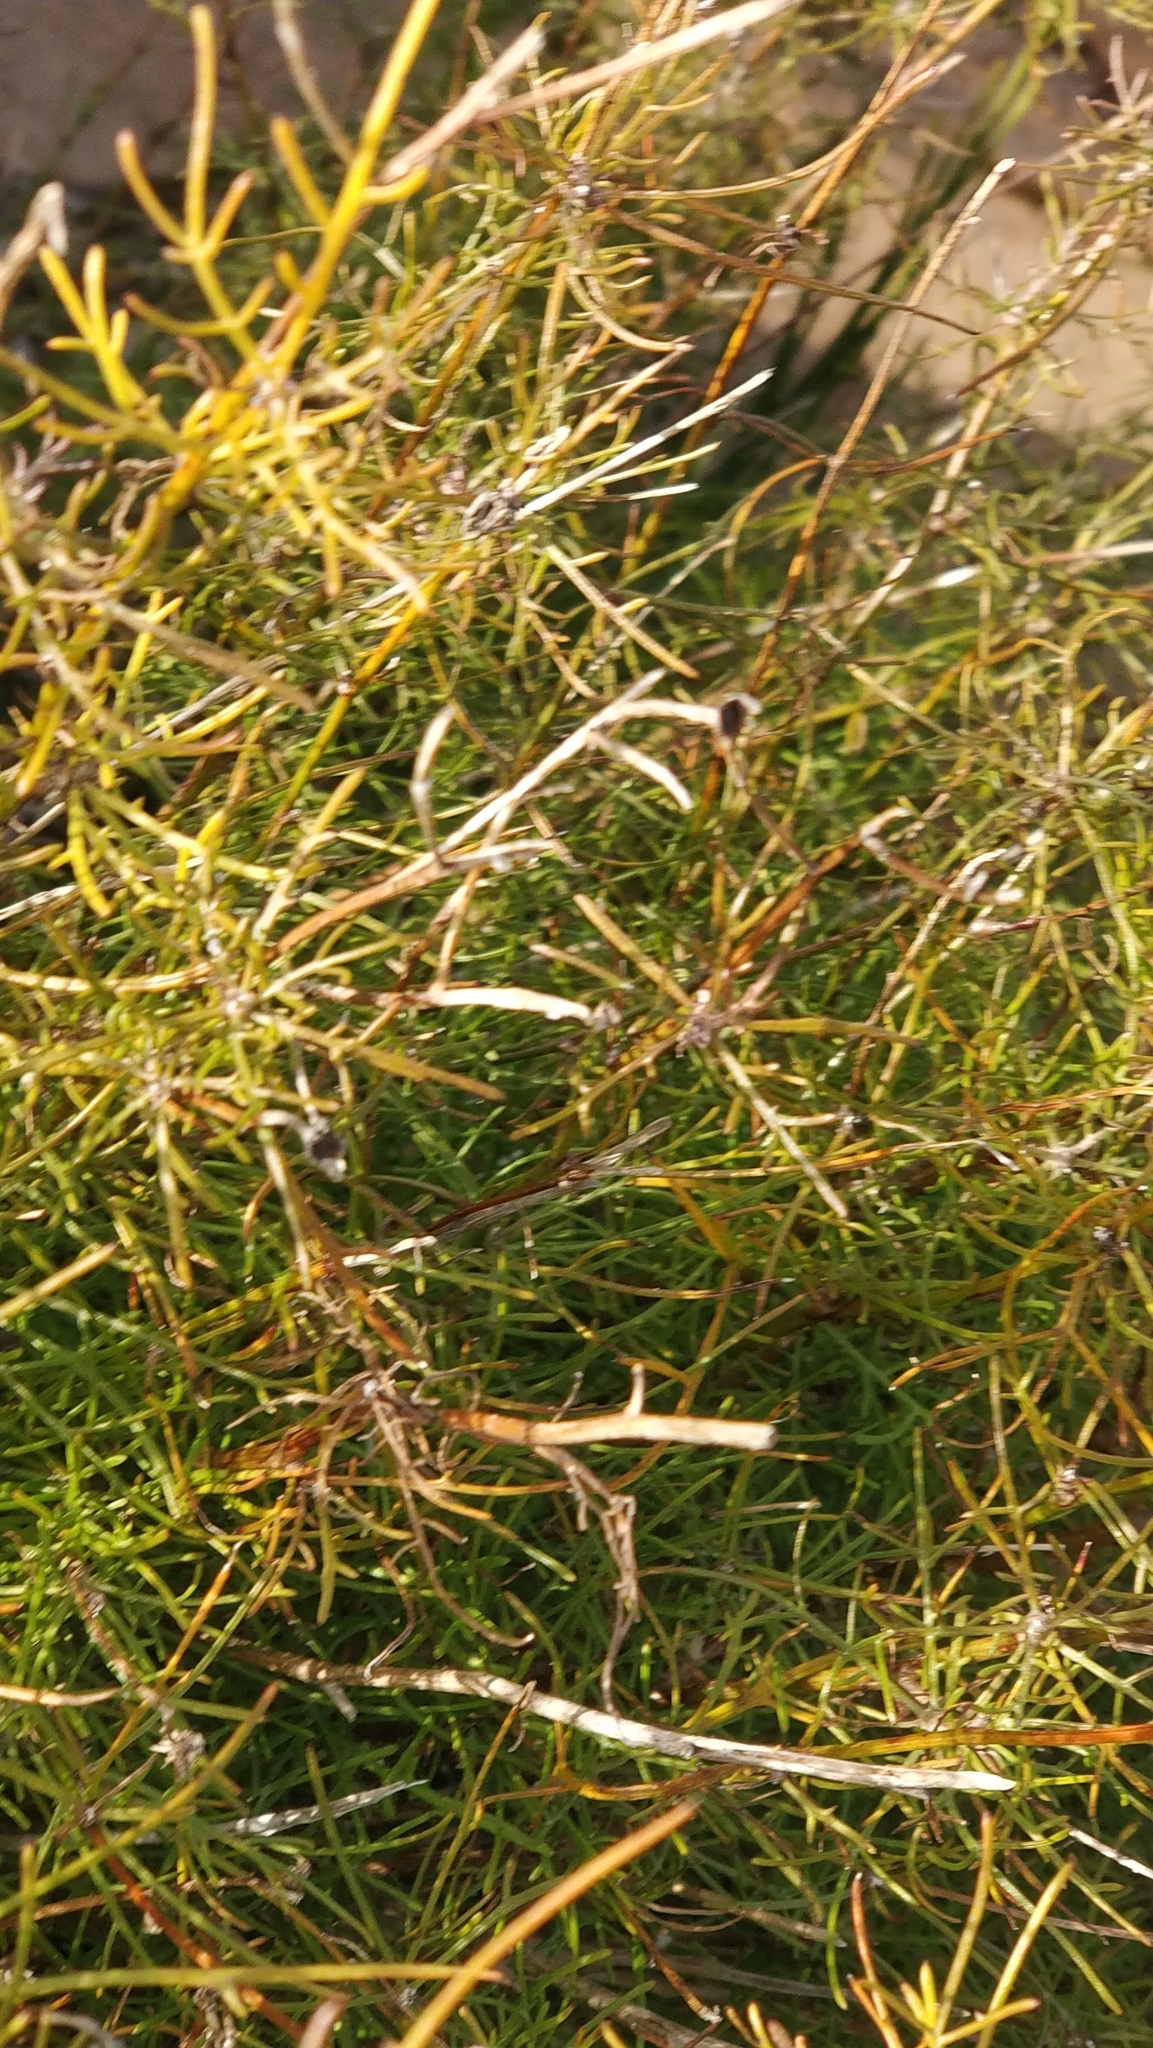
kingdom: Plantae
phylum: Tracheophyta
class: Magnoliopsida
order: Asterales
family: Asteraceae
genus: Tolpis
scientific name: Tolpis succulenta
